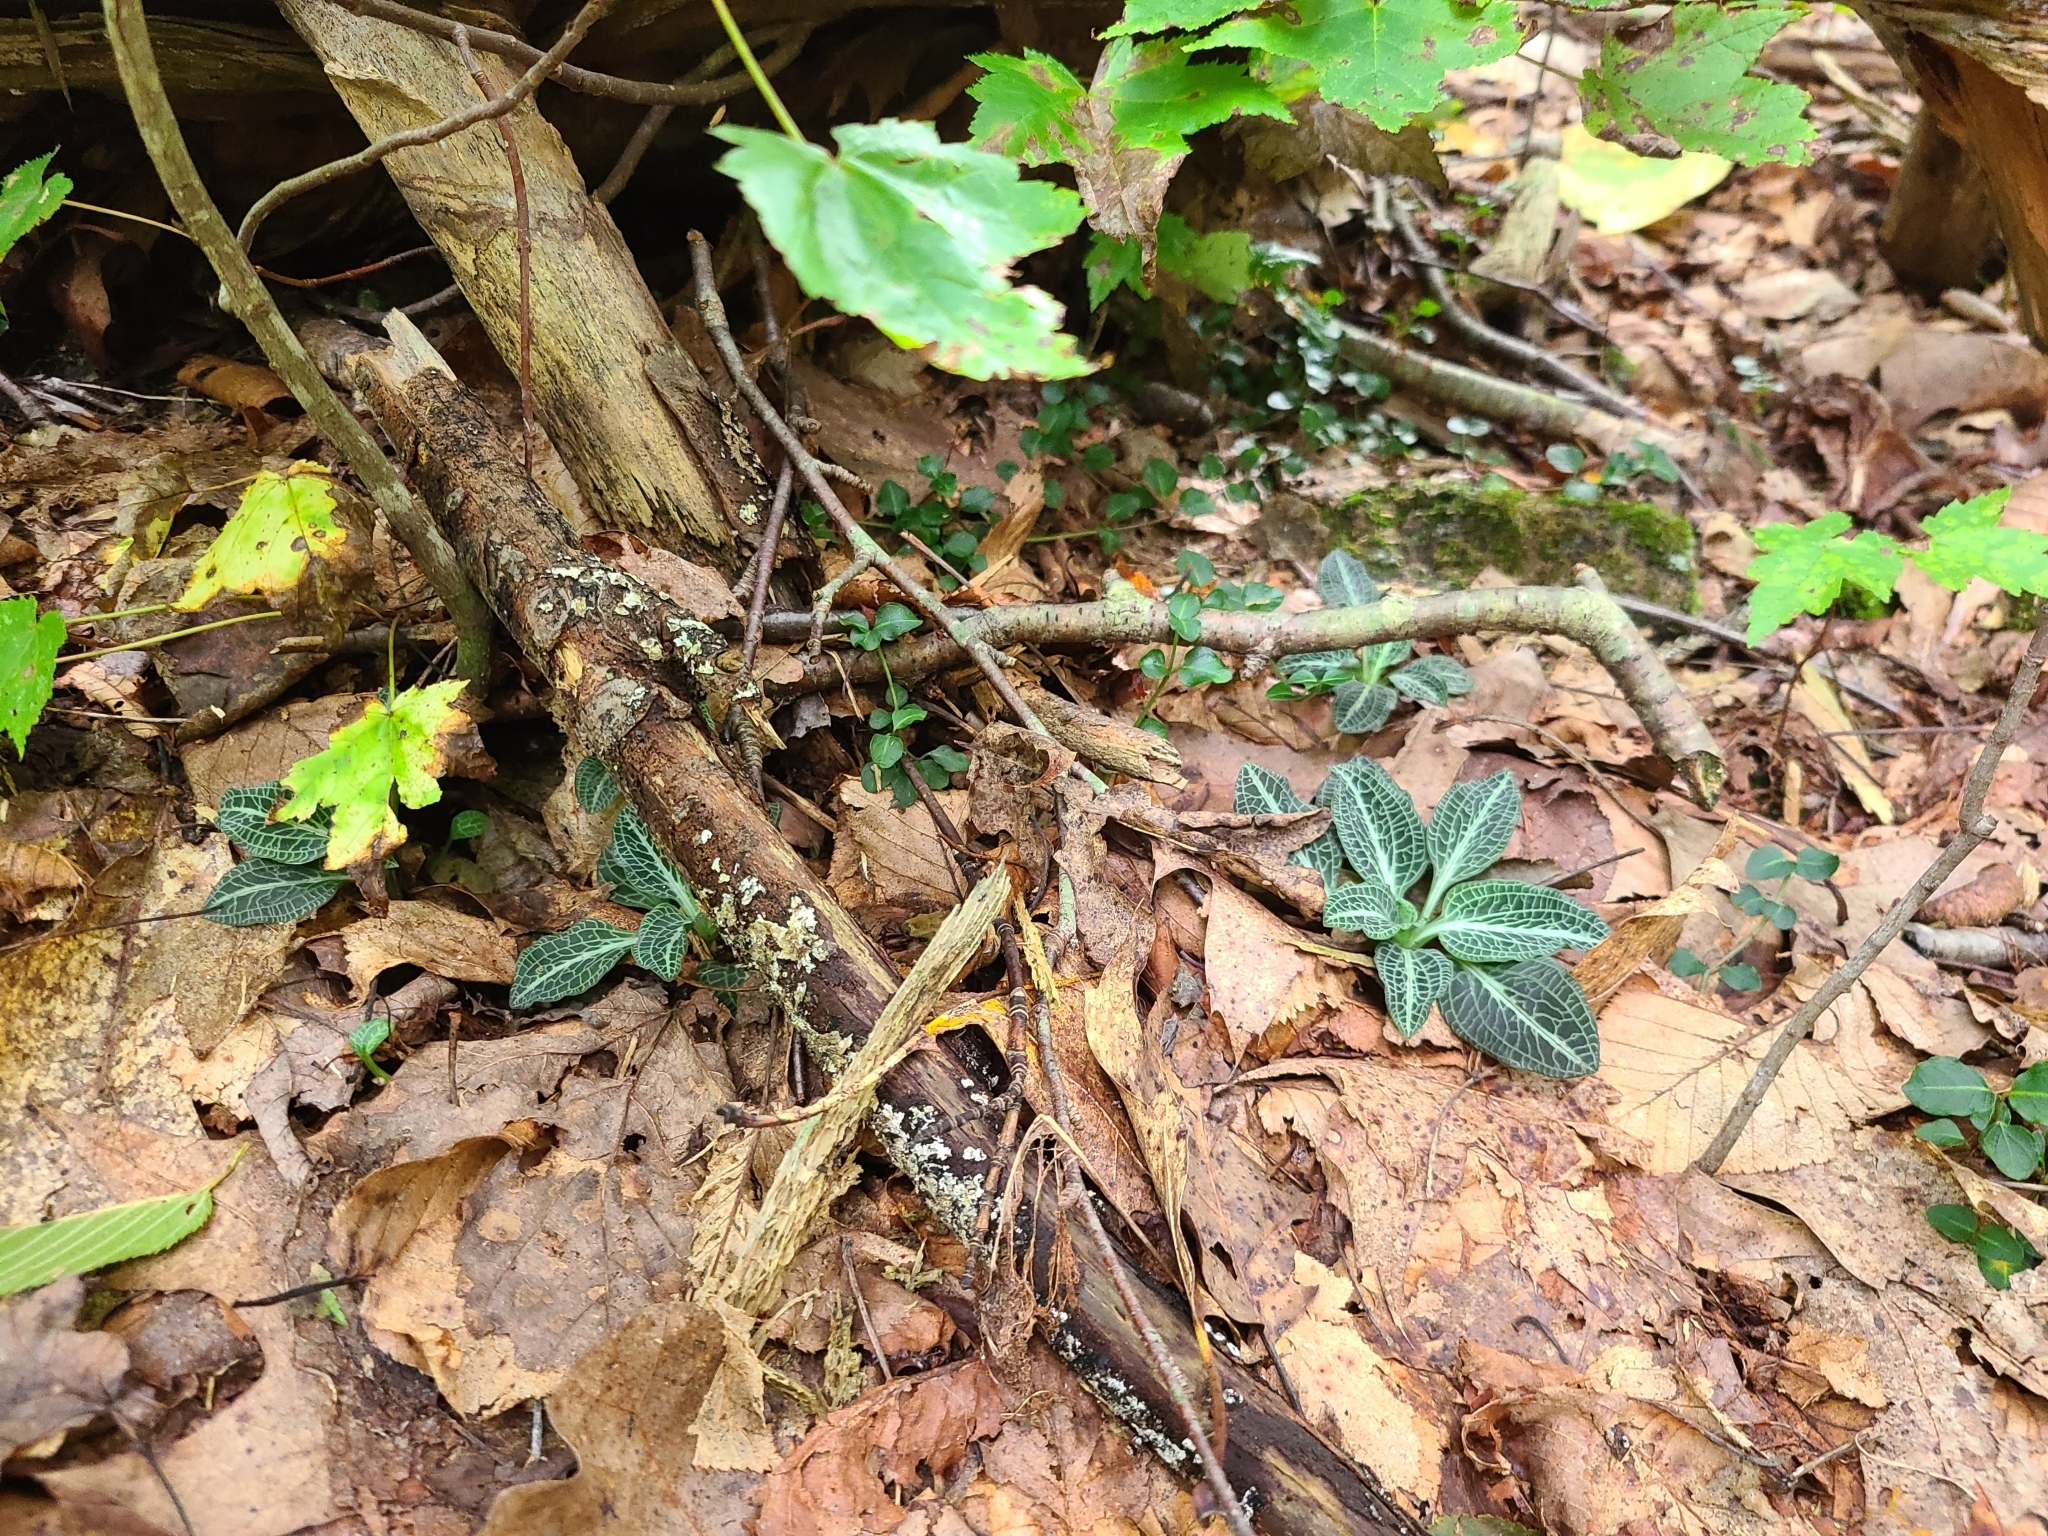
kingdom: Plantae
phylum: Tracheophyta
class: Liliopsida
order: Asparagales
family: Orchidaceae
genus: Goodyera
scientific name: Goodyera pubescens
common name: Downy rattlesnake-plantain
